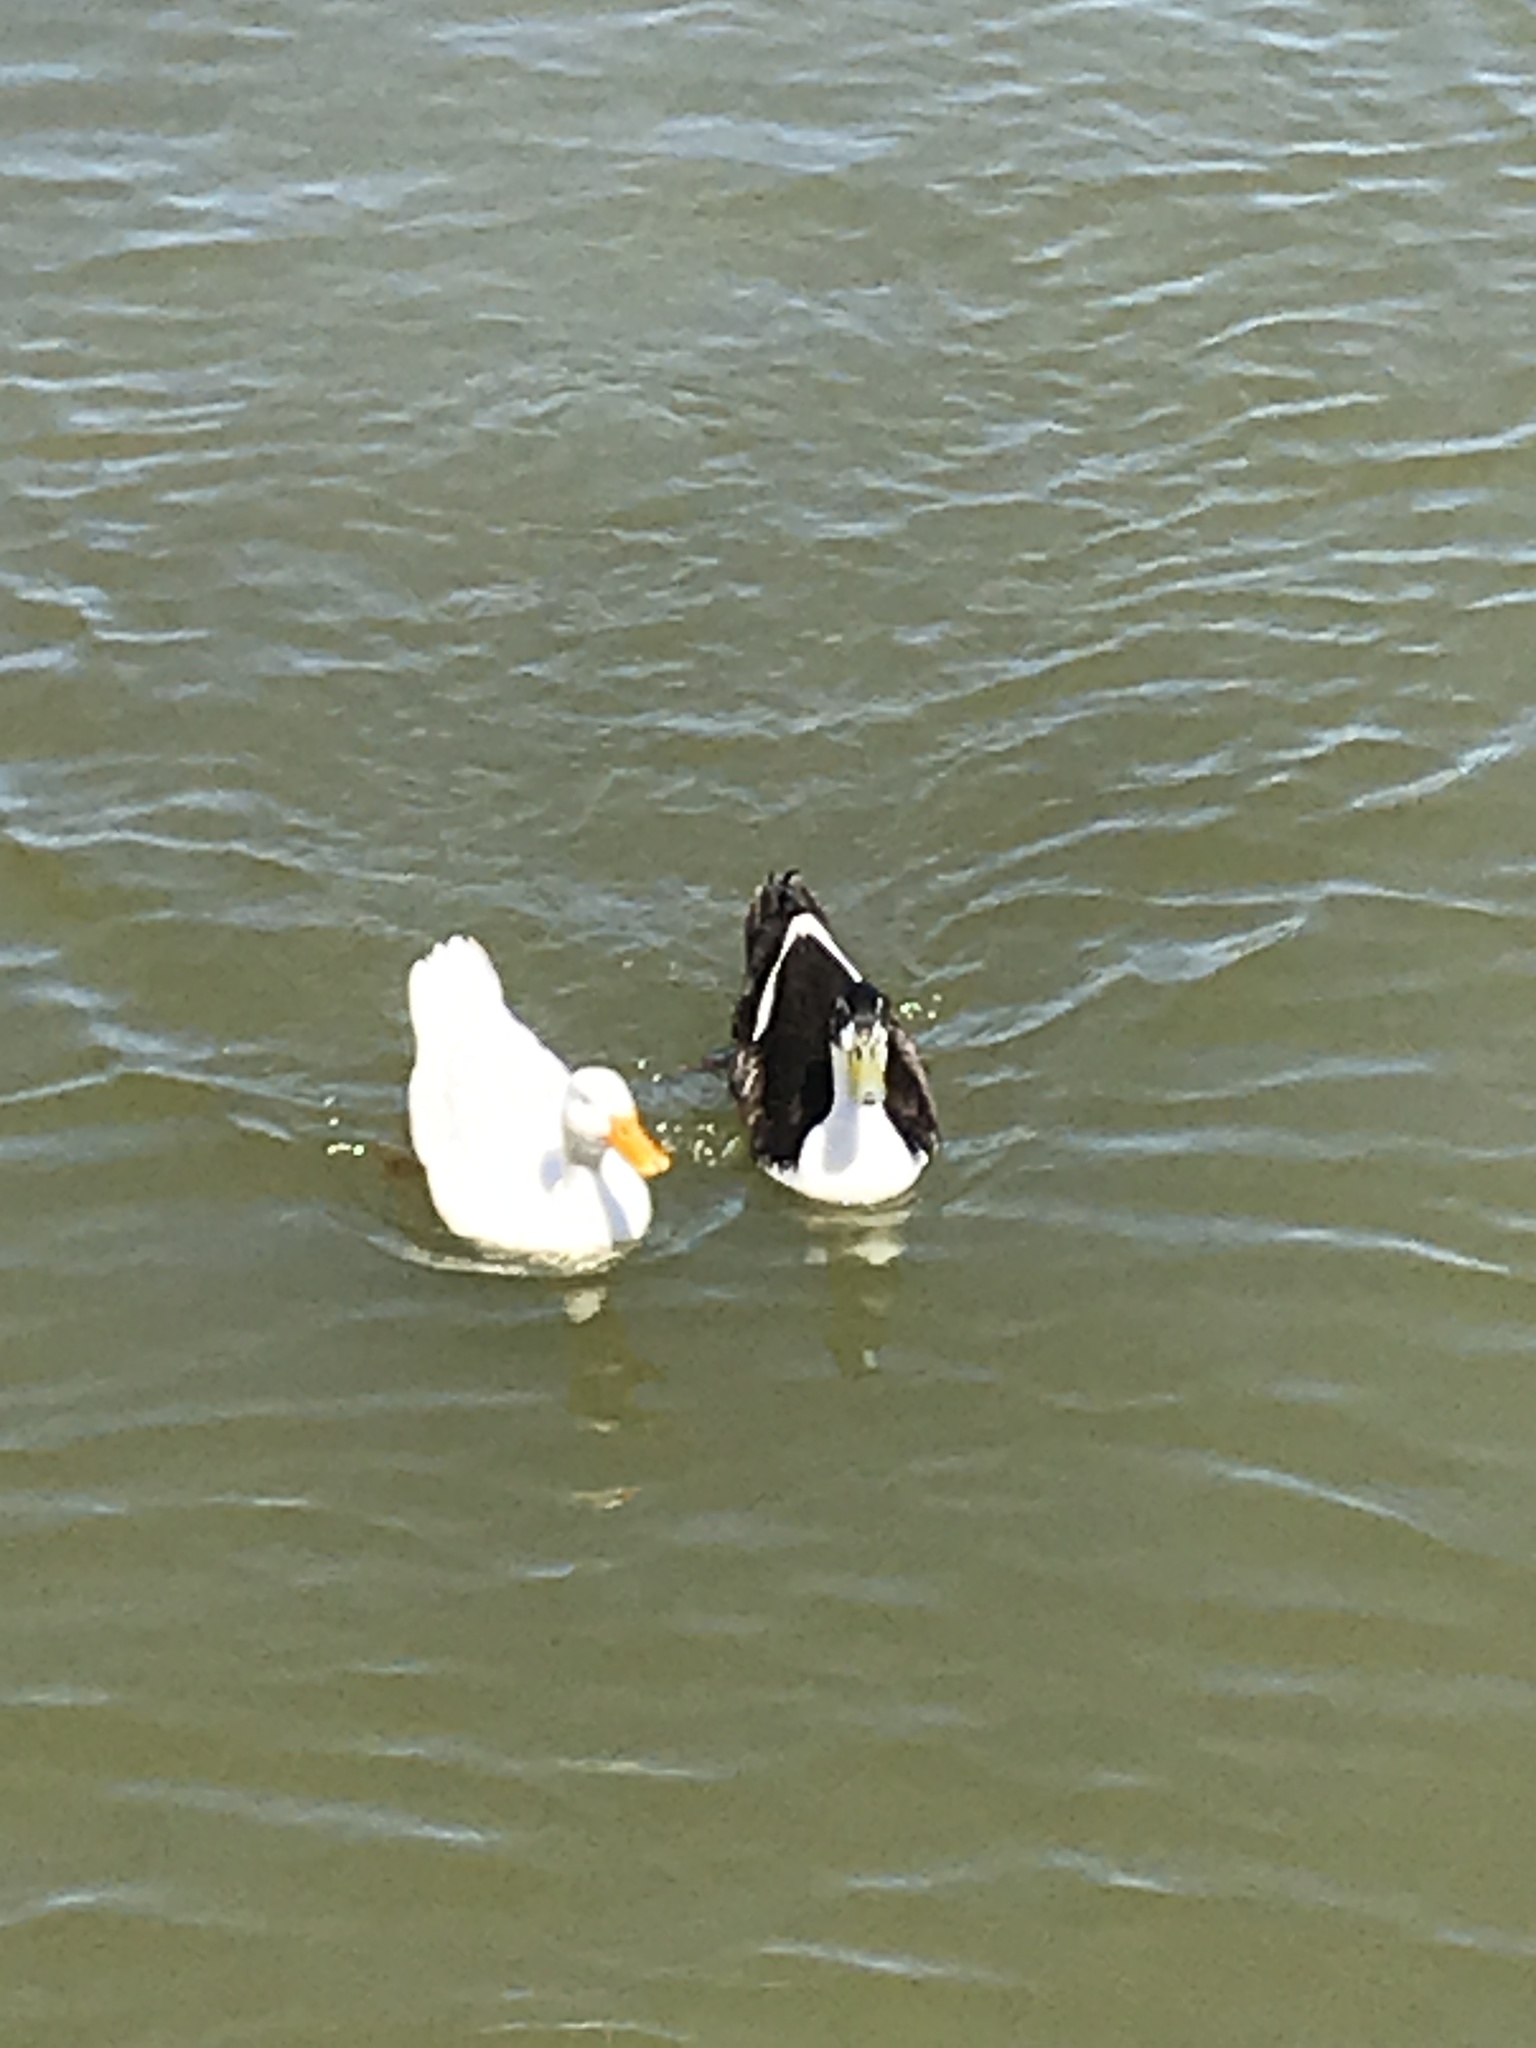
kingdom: Animalia
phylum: Chordata
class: Aves
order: Anseriformes
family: Anatidae
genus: Anas
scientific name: Anas platyrhynchos
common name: Mallard
